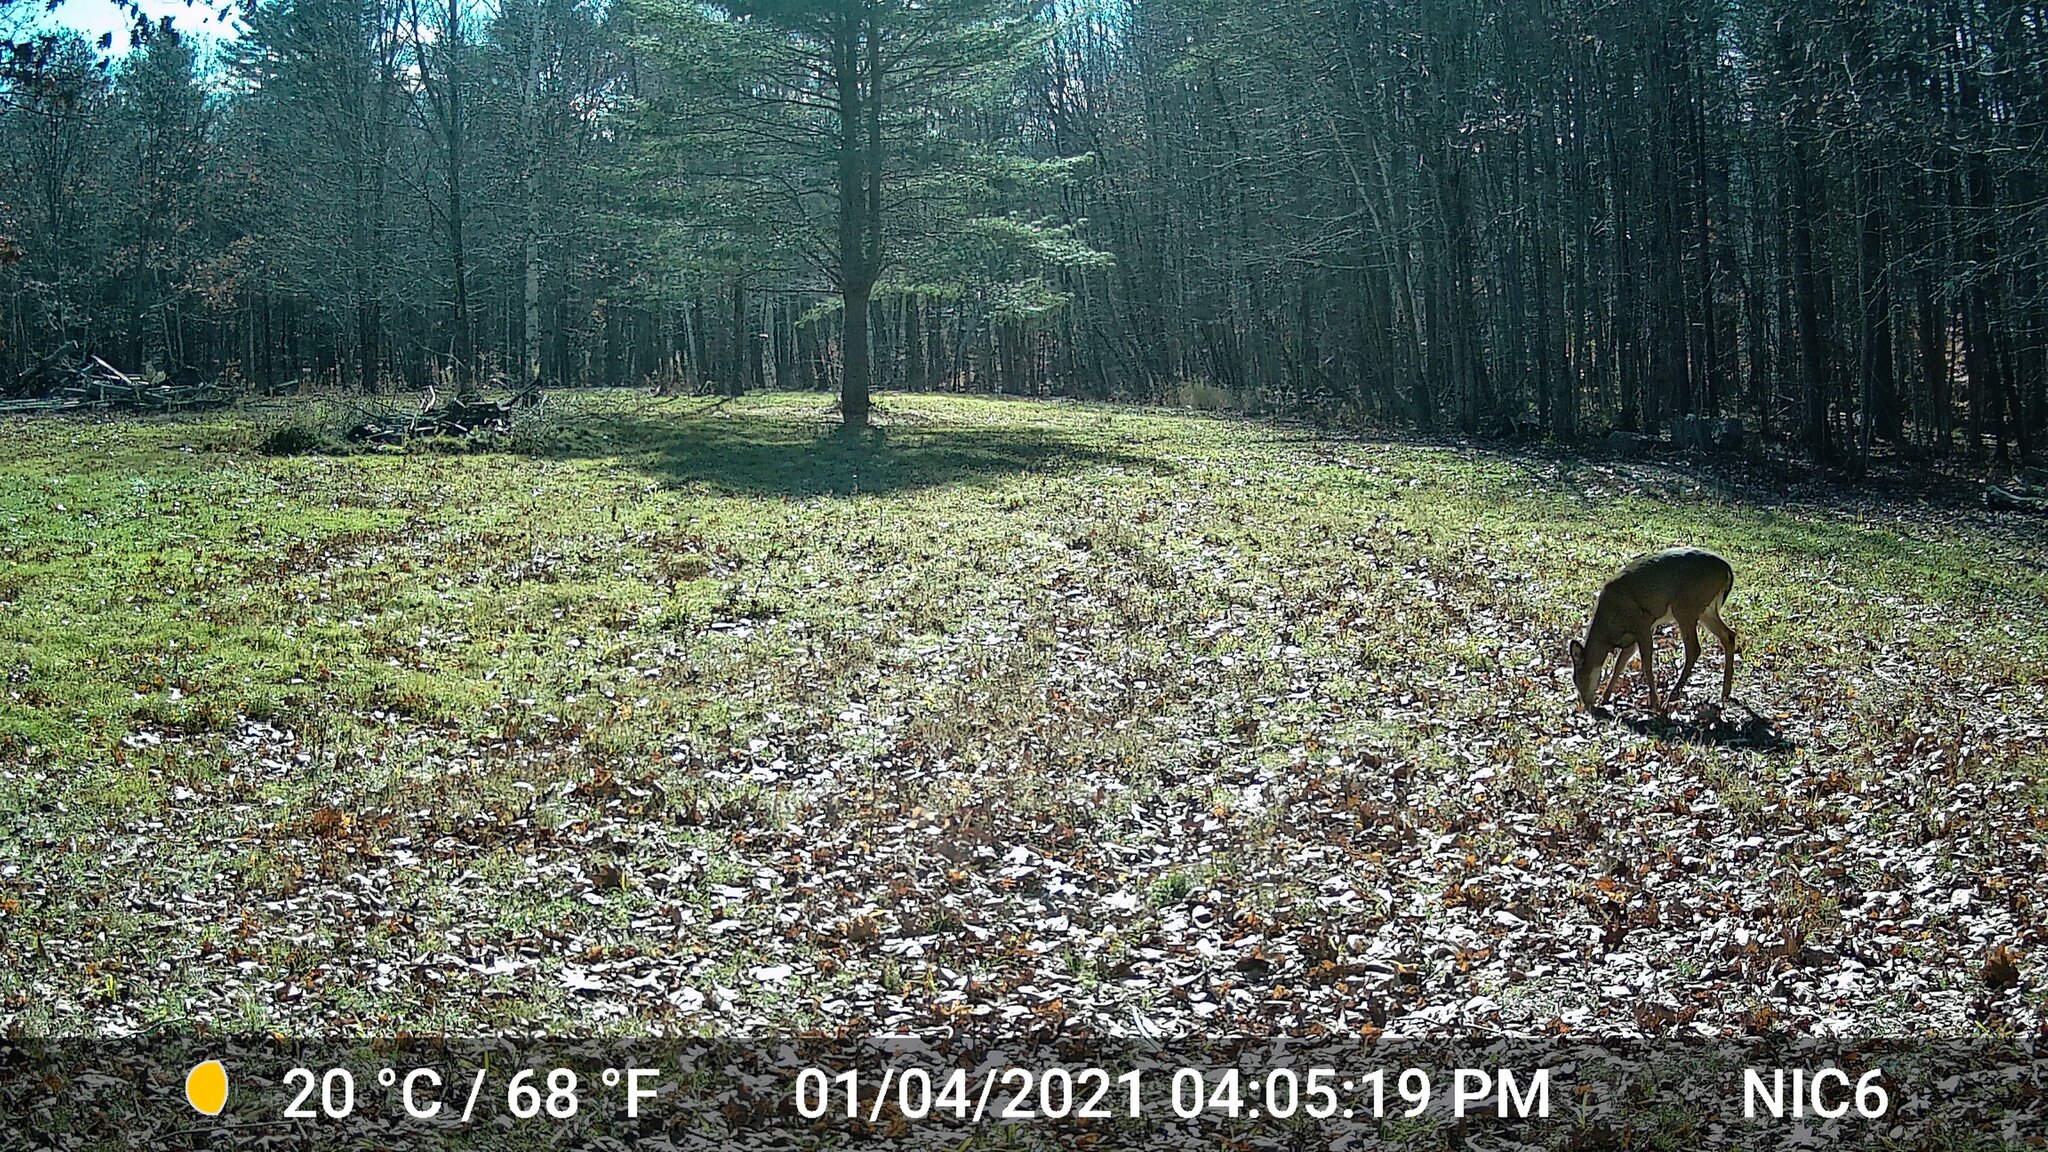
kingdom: Animalia
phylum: Chordata
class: Mammalia
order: Artiodactyla
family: Cervidae
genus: Odocoileus
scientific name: Odocoileus virginianus
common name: White-tailed deer
